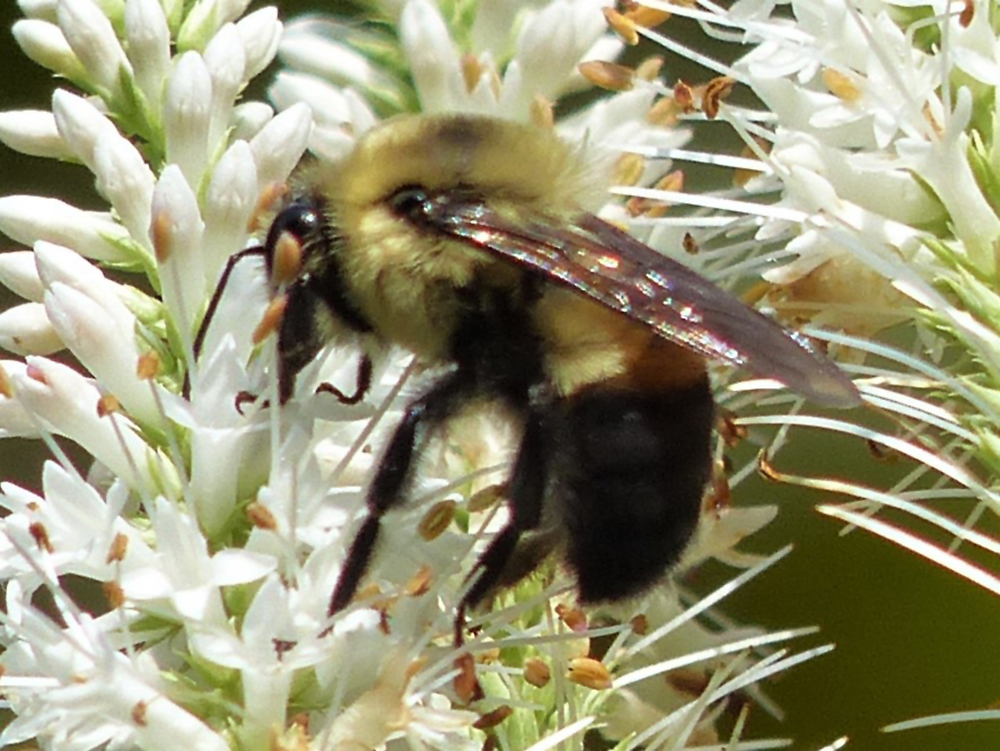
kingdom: Animalia
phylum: Arthropoda
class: Insecta
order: Hymenoptera
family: Apidae
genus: Bombus
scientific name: Bombus griseocollis
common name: Brown-belted bumble bee
